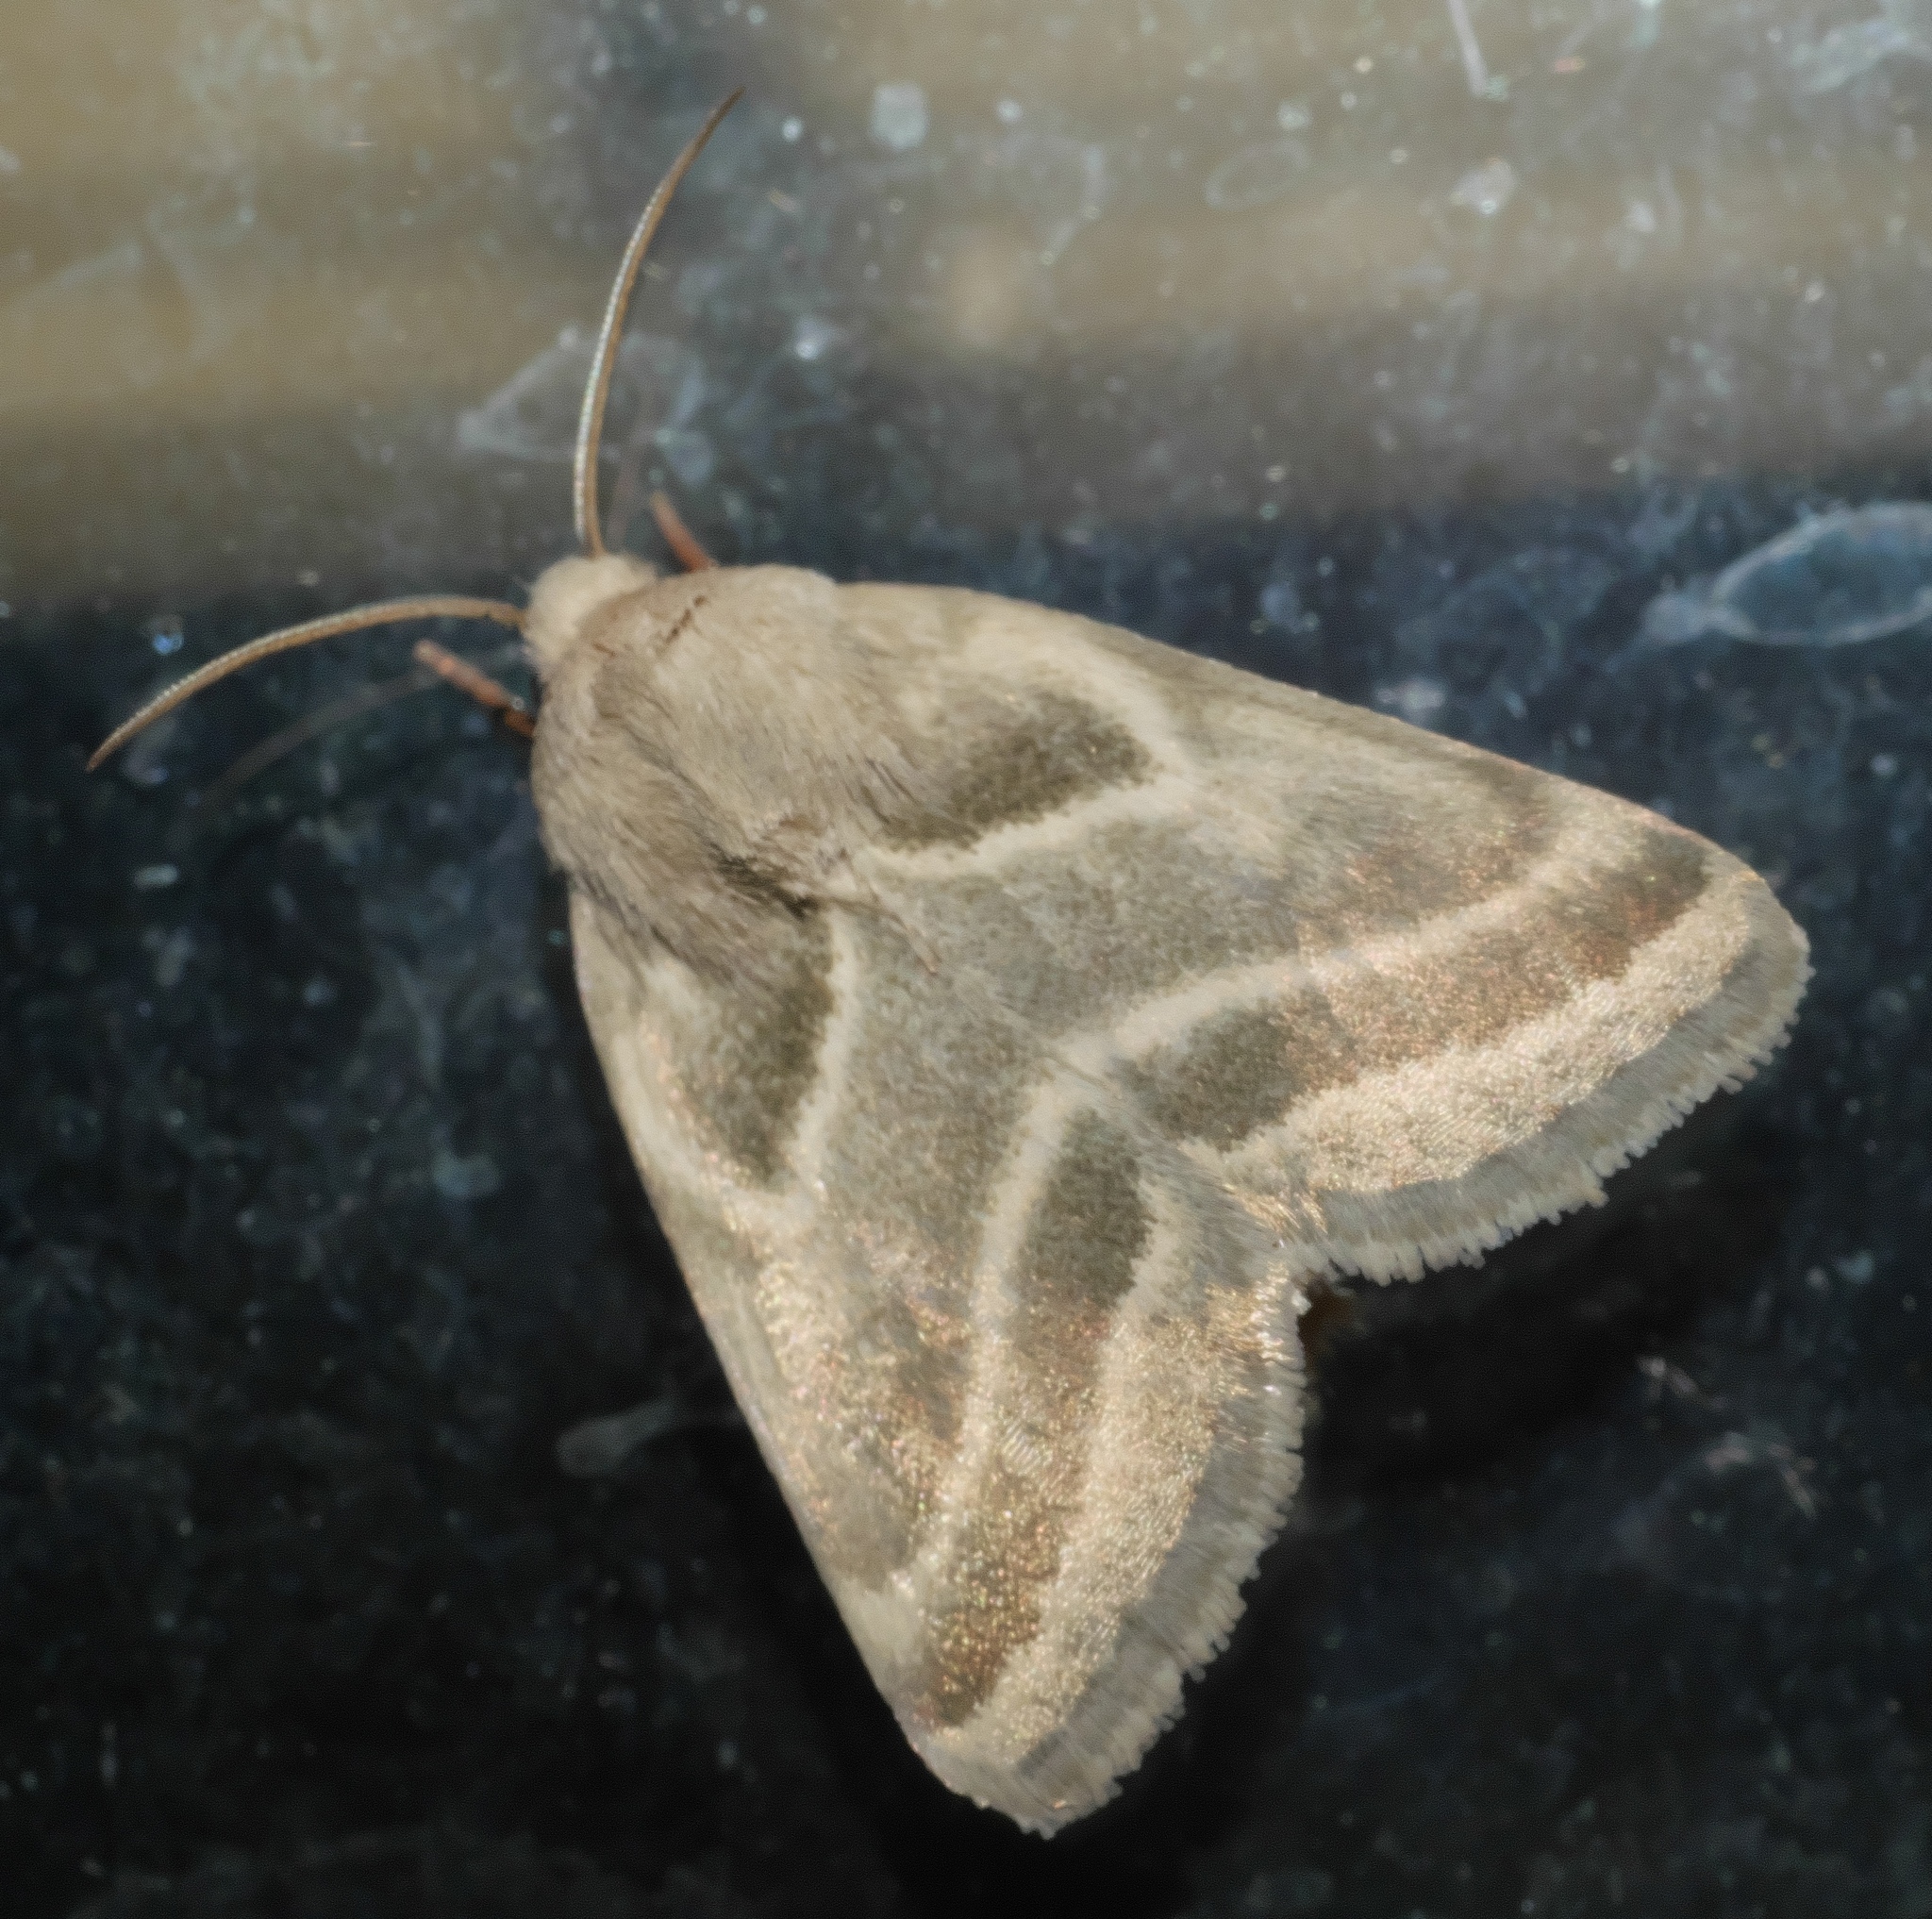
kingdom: Animalia
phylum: Arthropoda
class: Insecta
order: Lepidoptera
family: Noctuidae
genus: Schinia
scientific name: Schinia trifascia
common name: Three-lined flower moth
